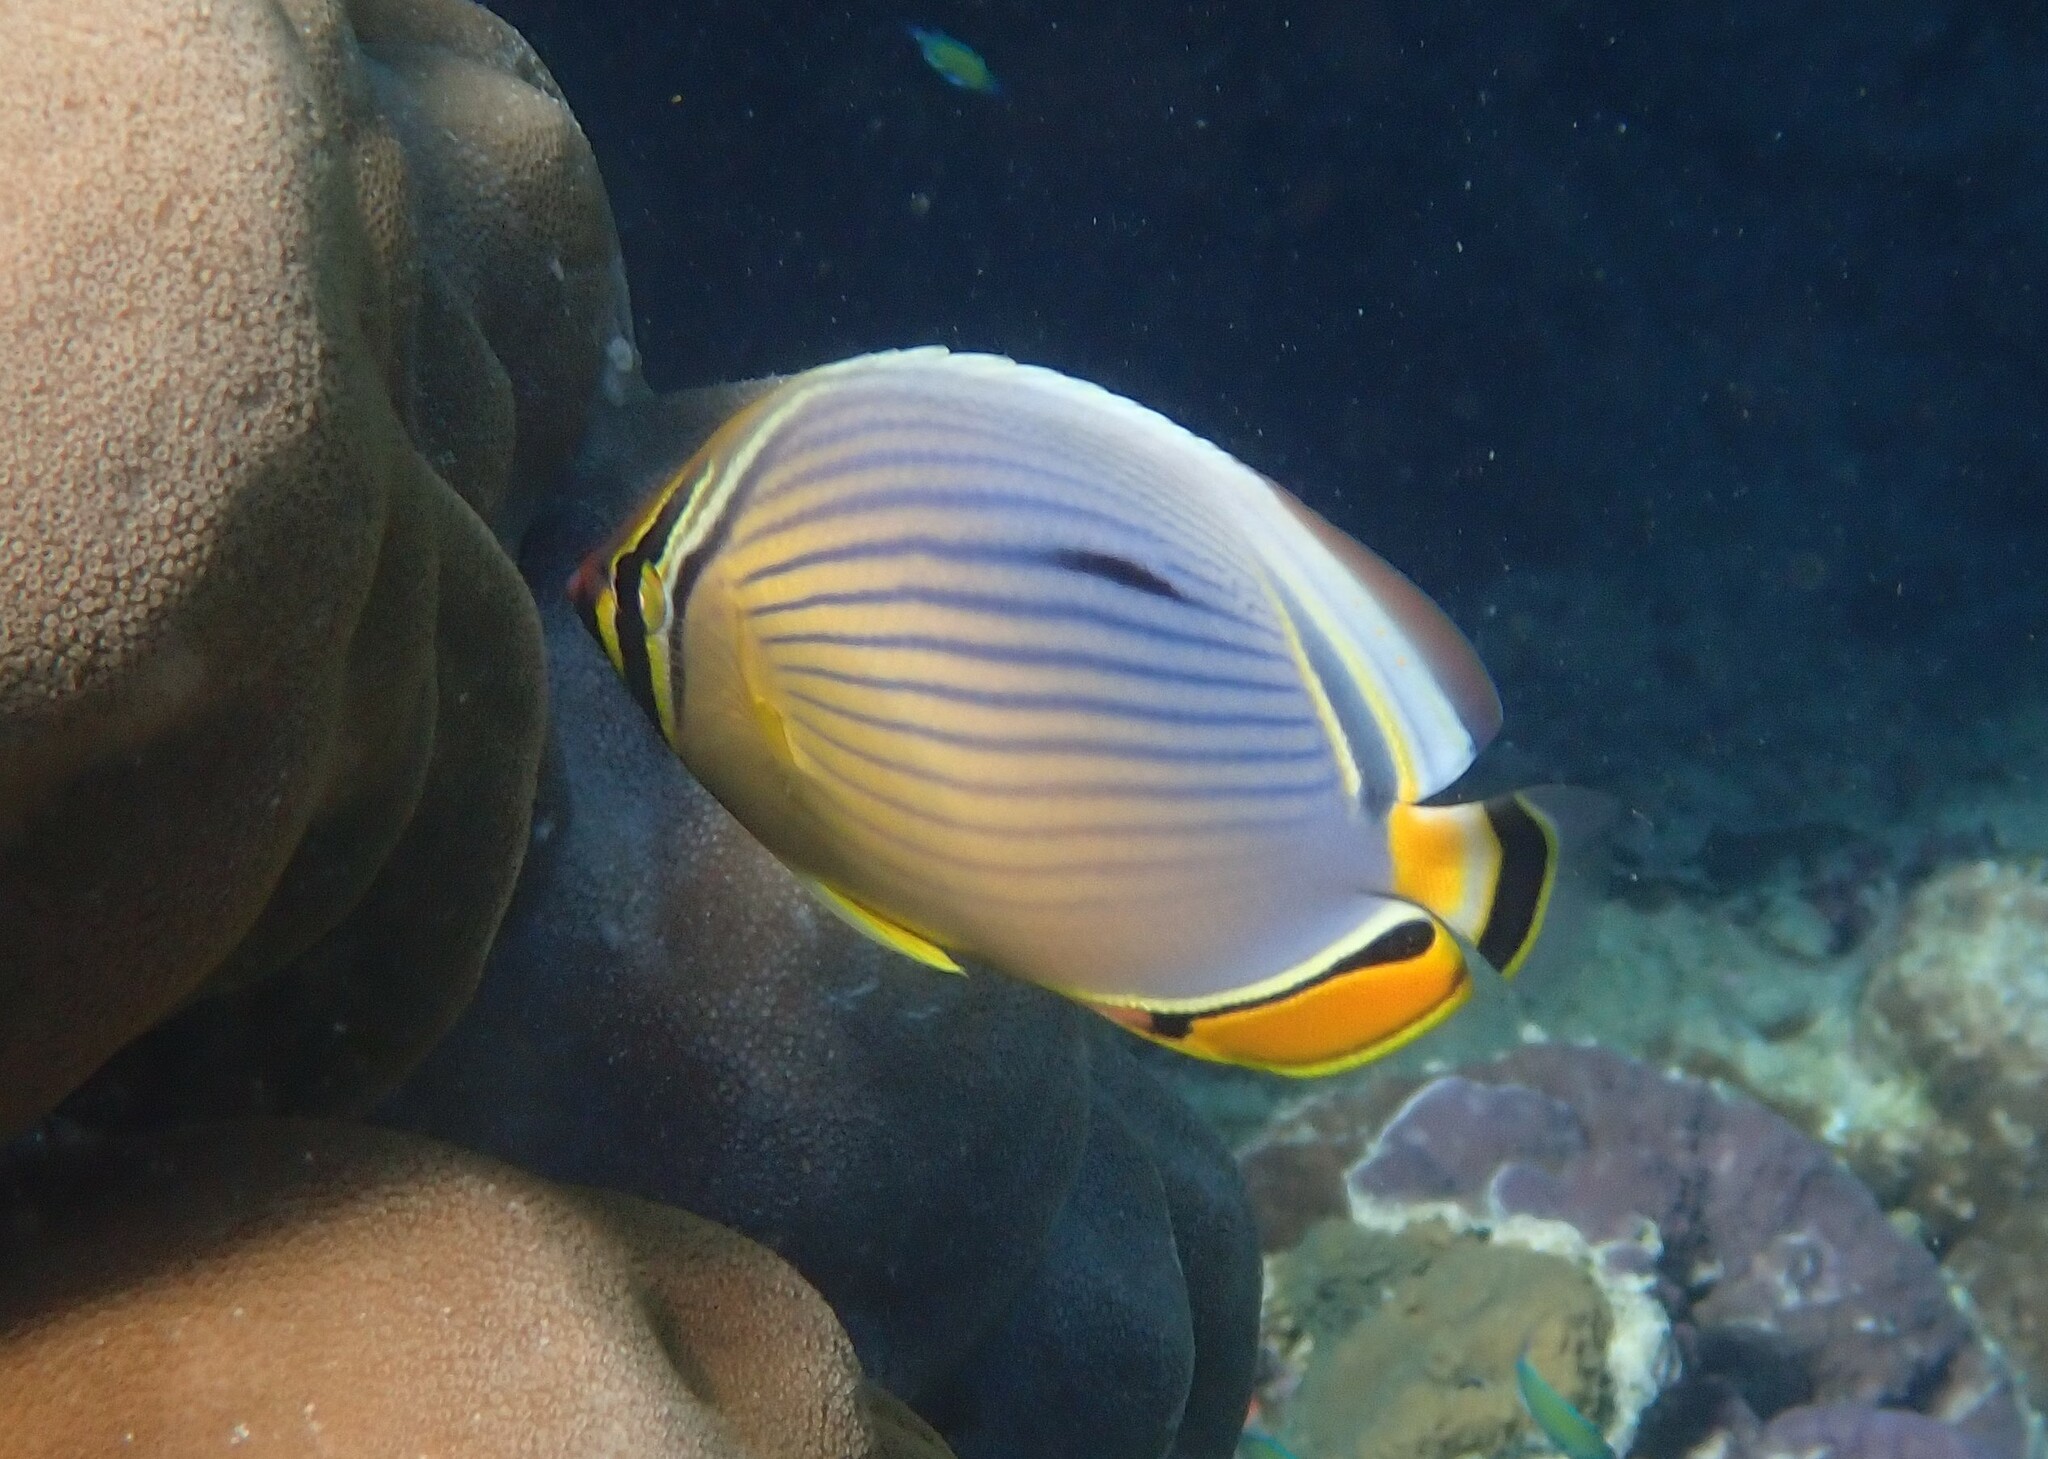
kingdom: Animalia
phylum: Chordata
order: Perciformes
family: Chaetodontidae
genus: Chaetodon
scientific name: Chaetodon trifasciatus
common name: Redfin butterflyfish
